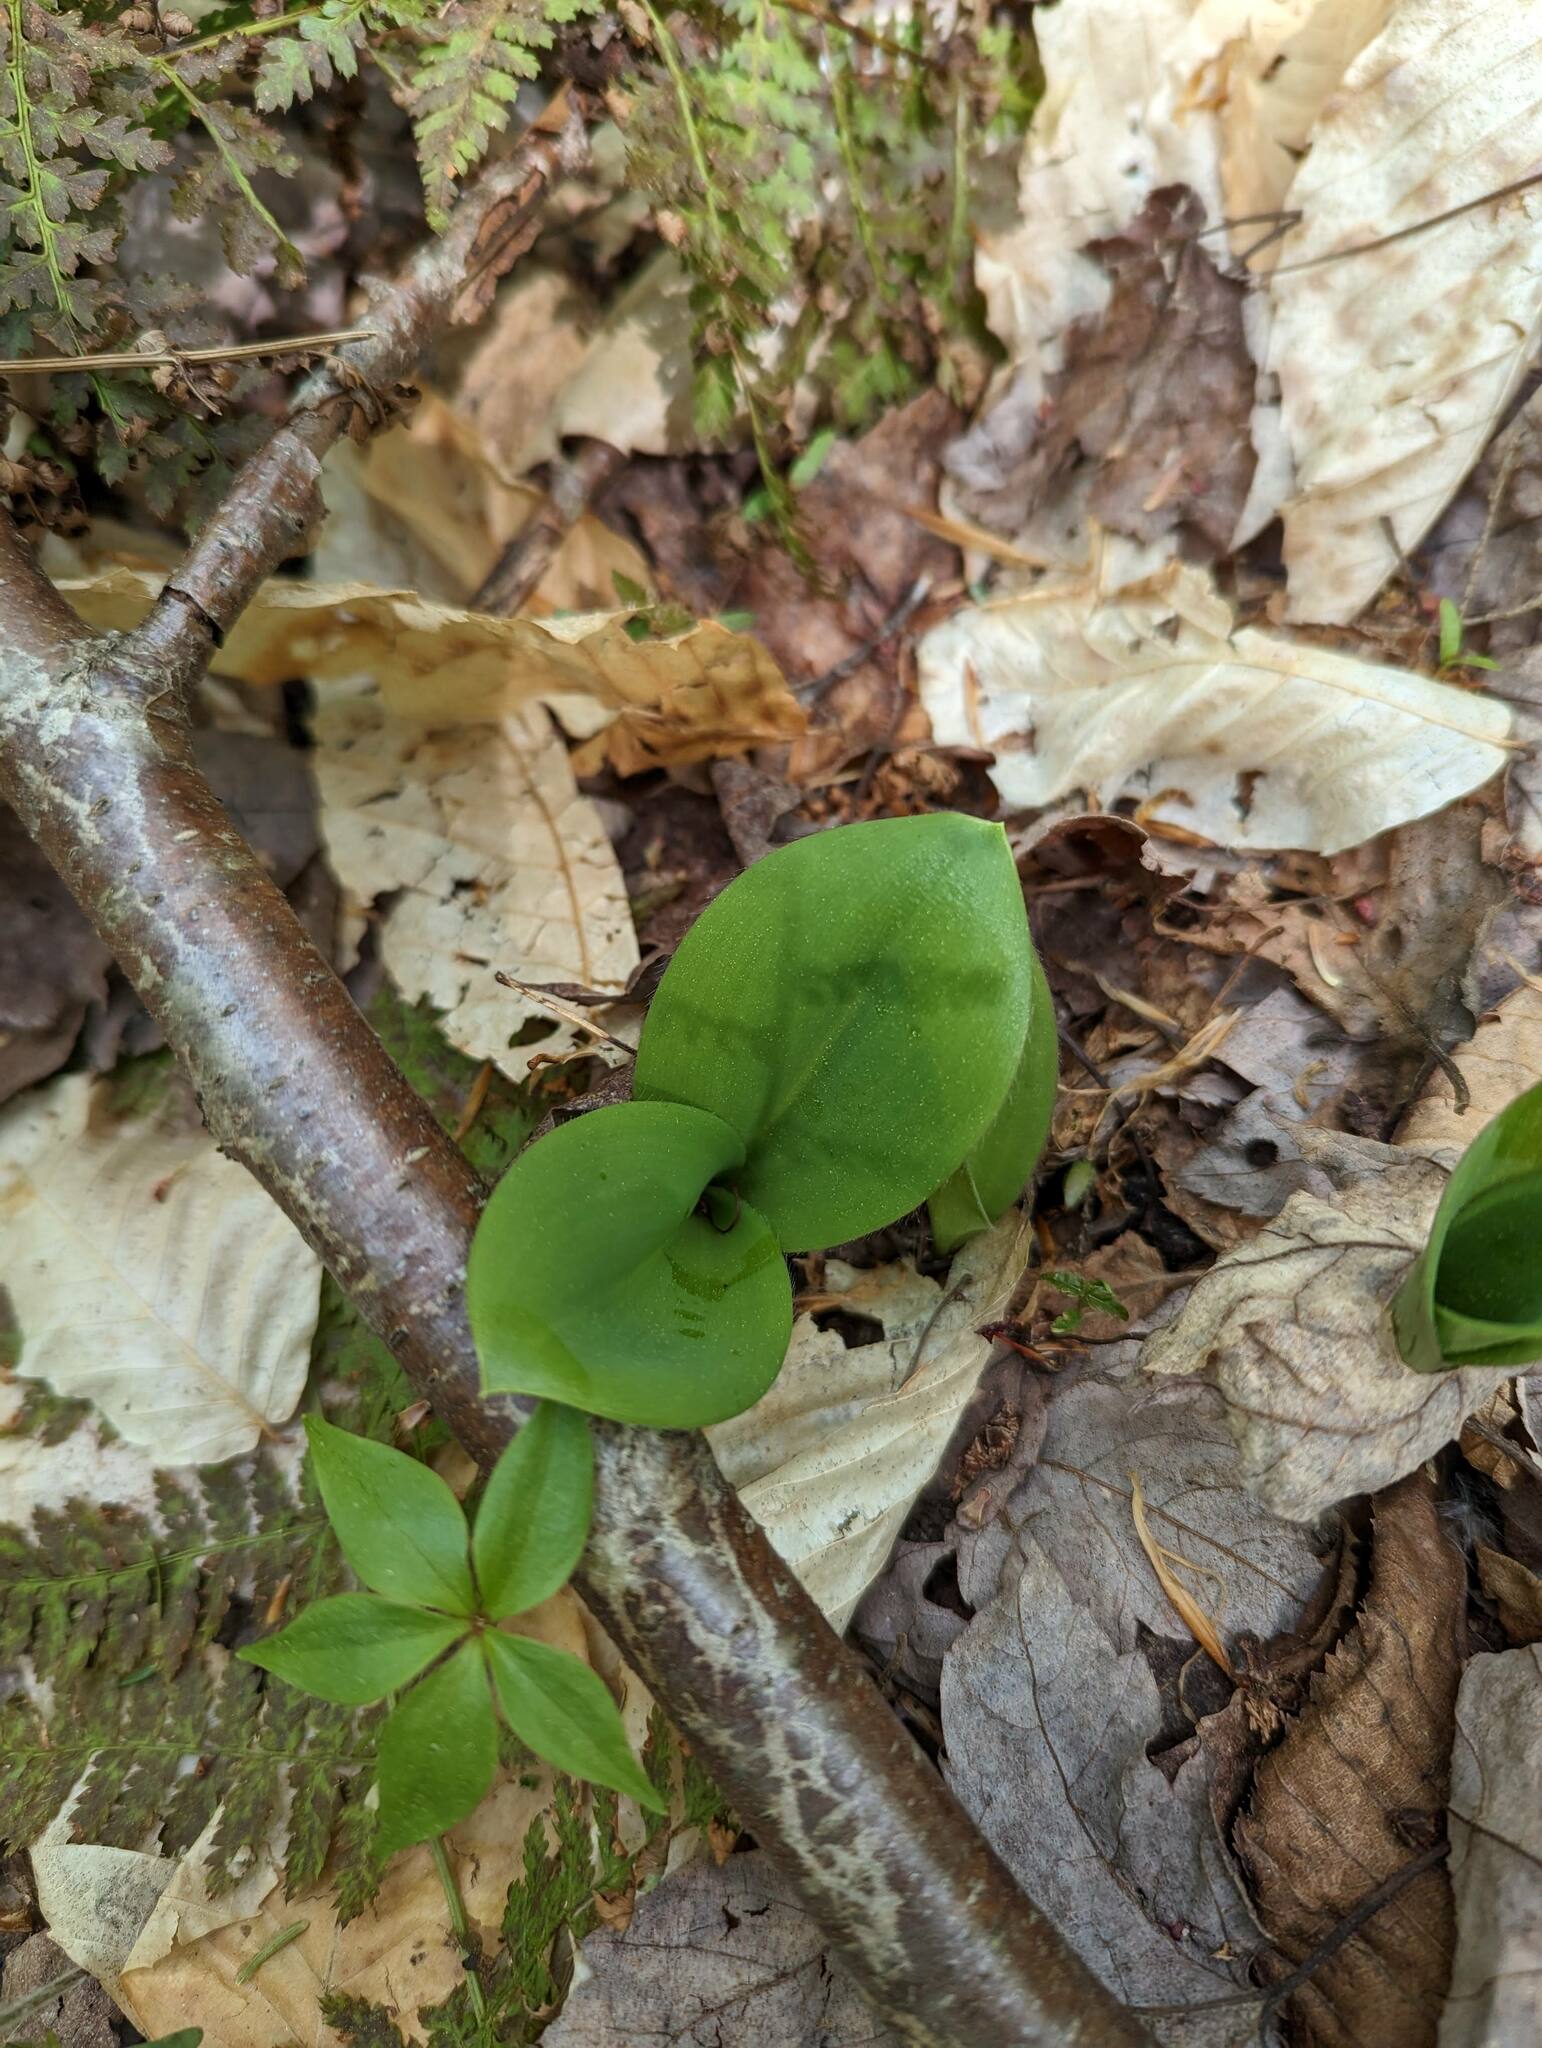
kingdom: Plantae
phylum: Tracheophyta
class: Liliopsida
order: Liliales
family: Liliaceae
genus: Clintonia
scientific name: Clintonia borealis
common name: Yellow clintonia
